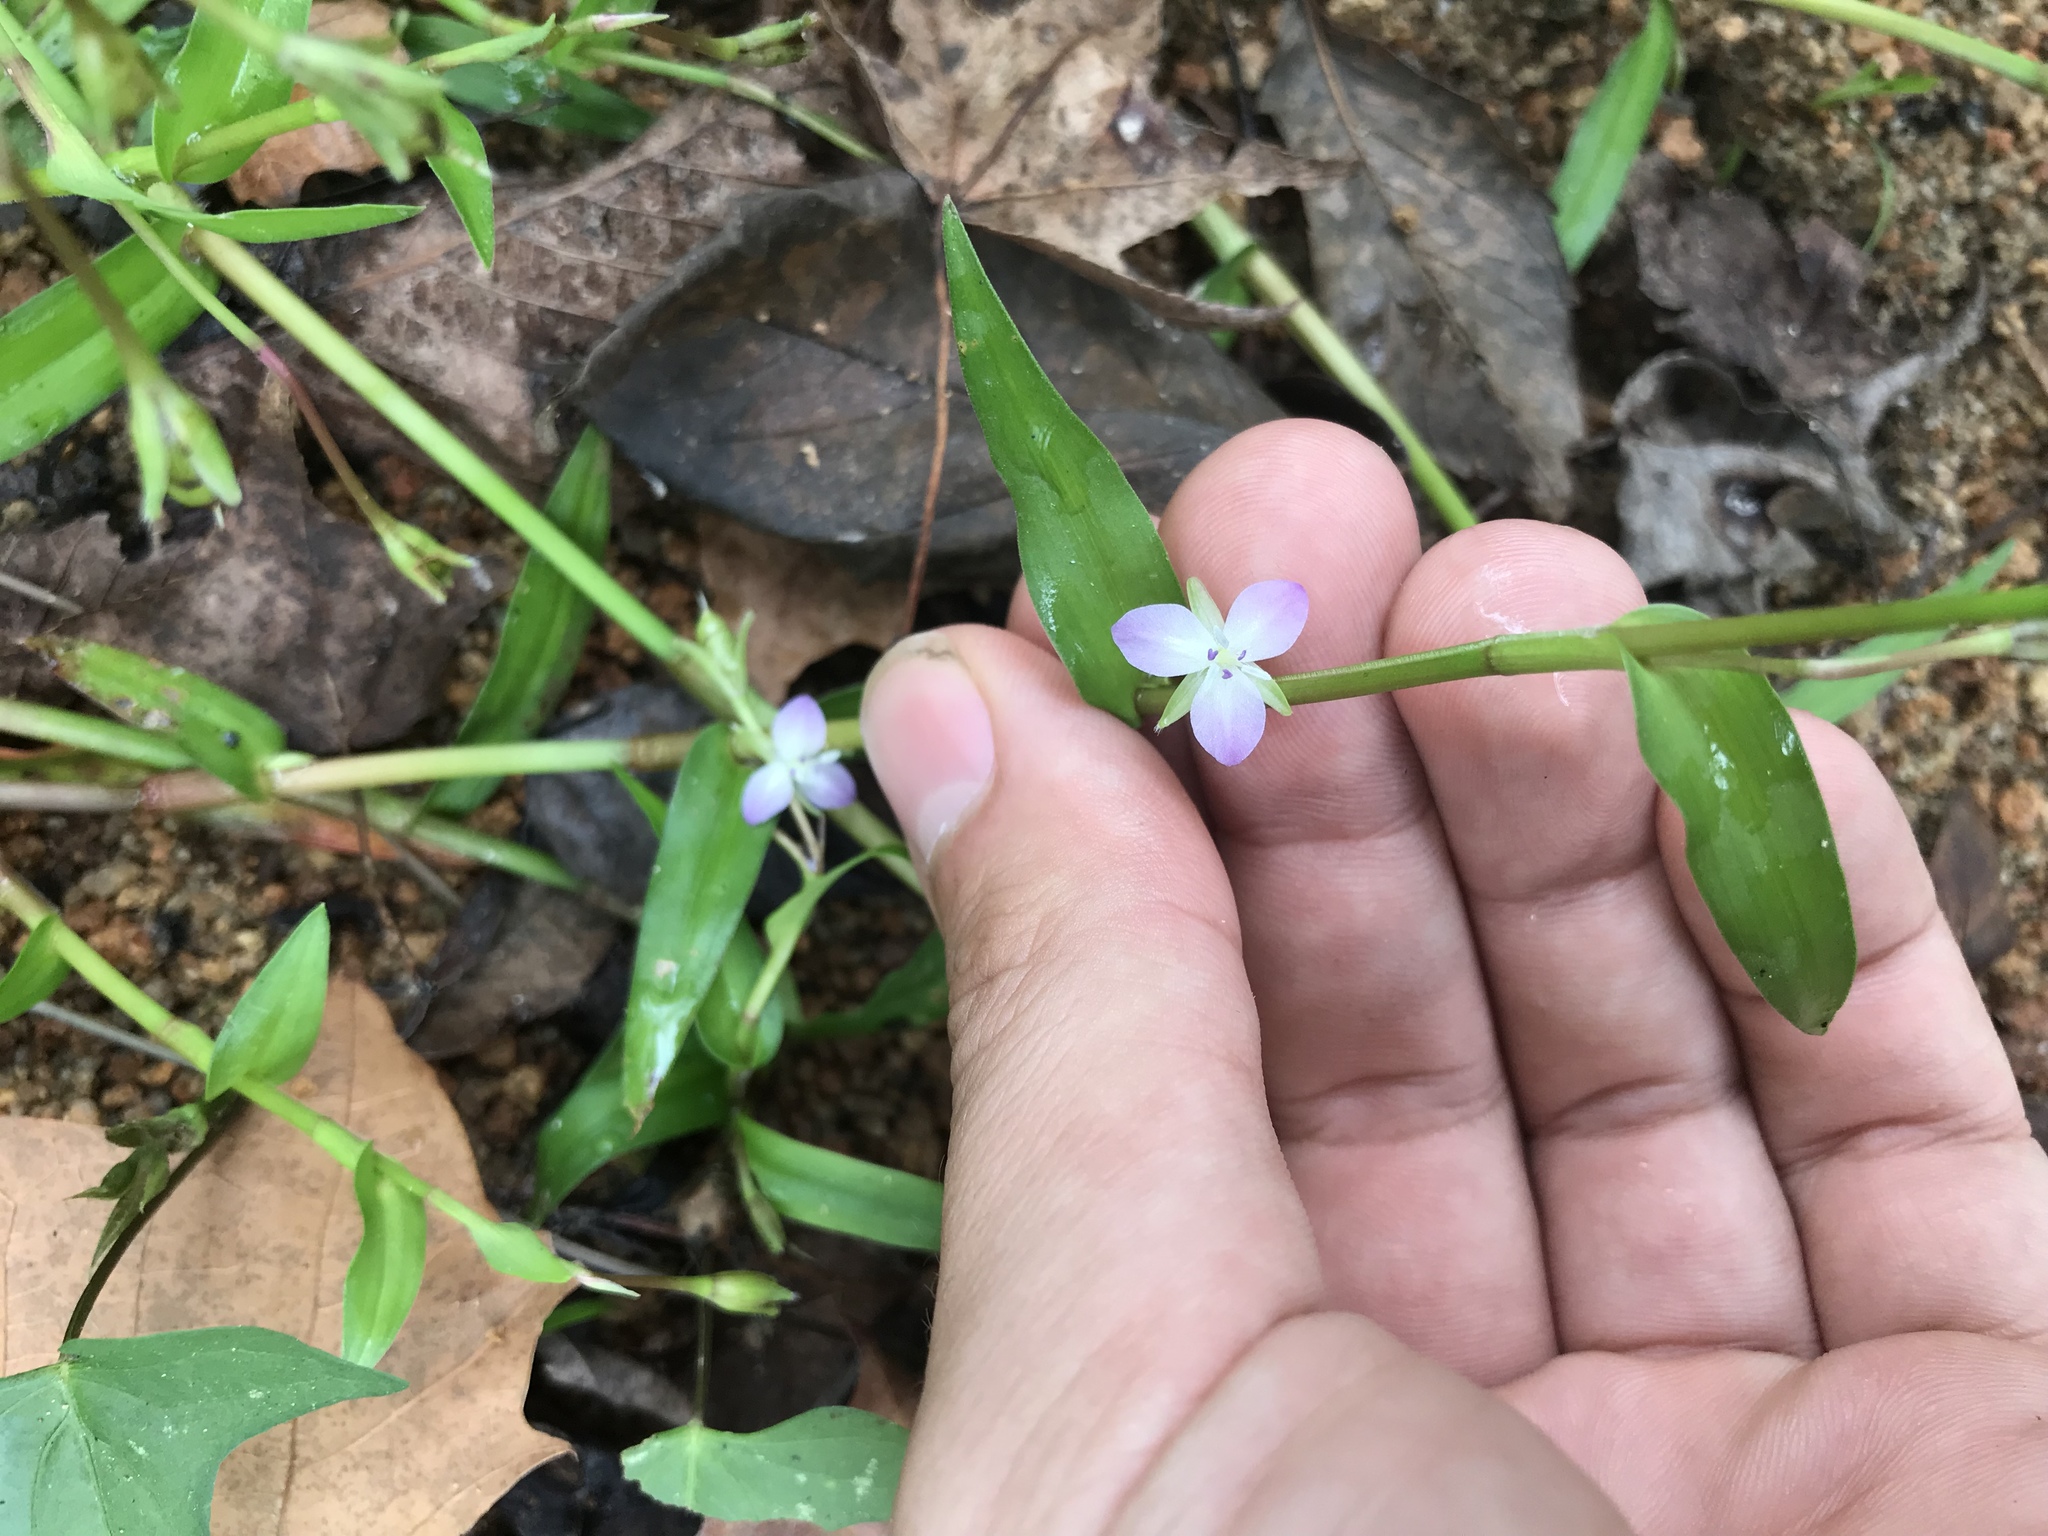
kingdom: Plantae
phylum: Tracheophyta
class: Liliopsida
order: Commelinales
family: Commelinaceae
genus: Murdannia
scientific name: Murdannia keisak
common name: Wartremoving herb
